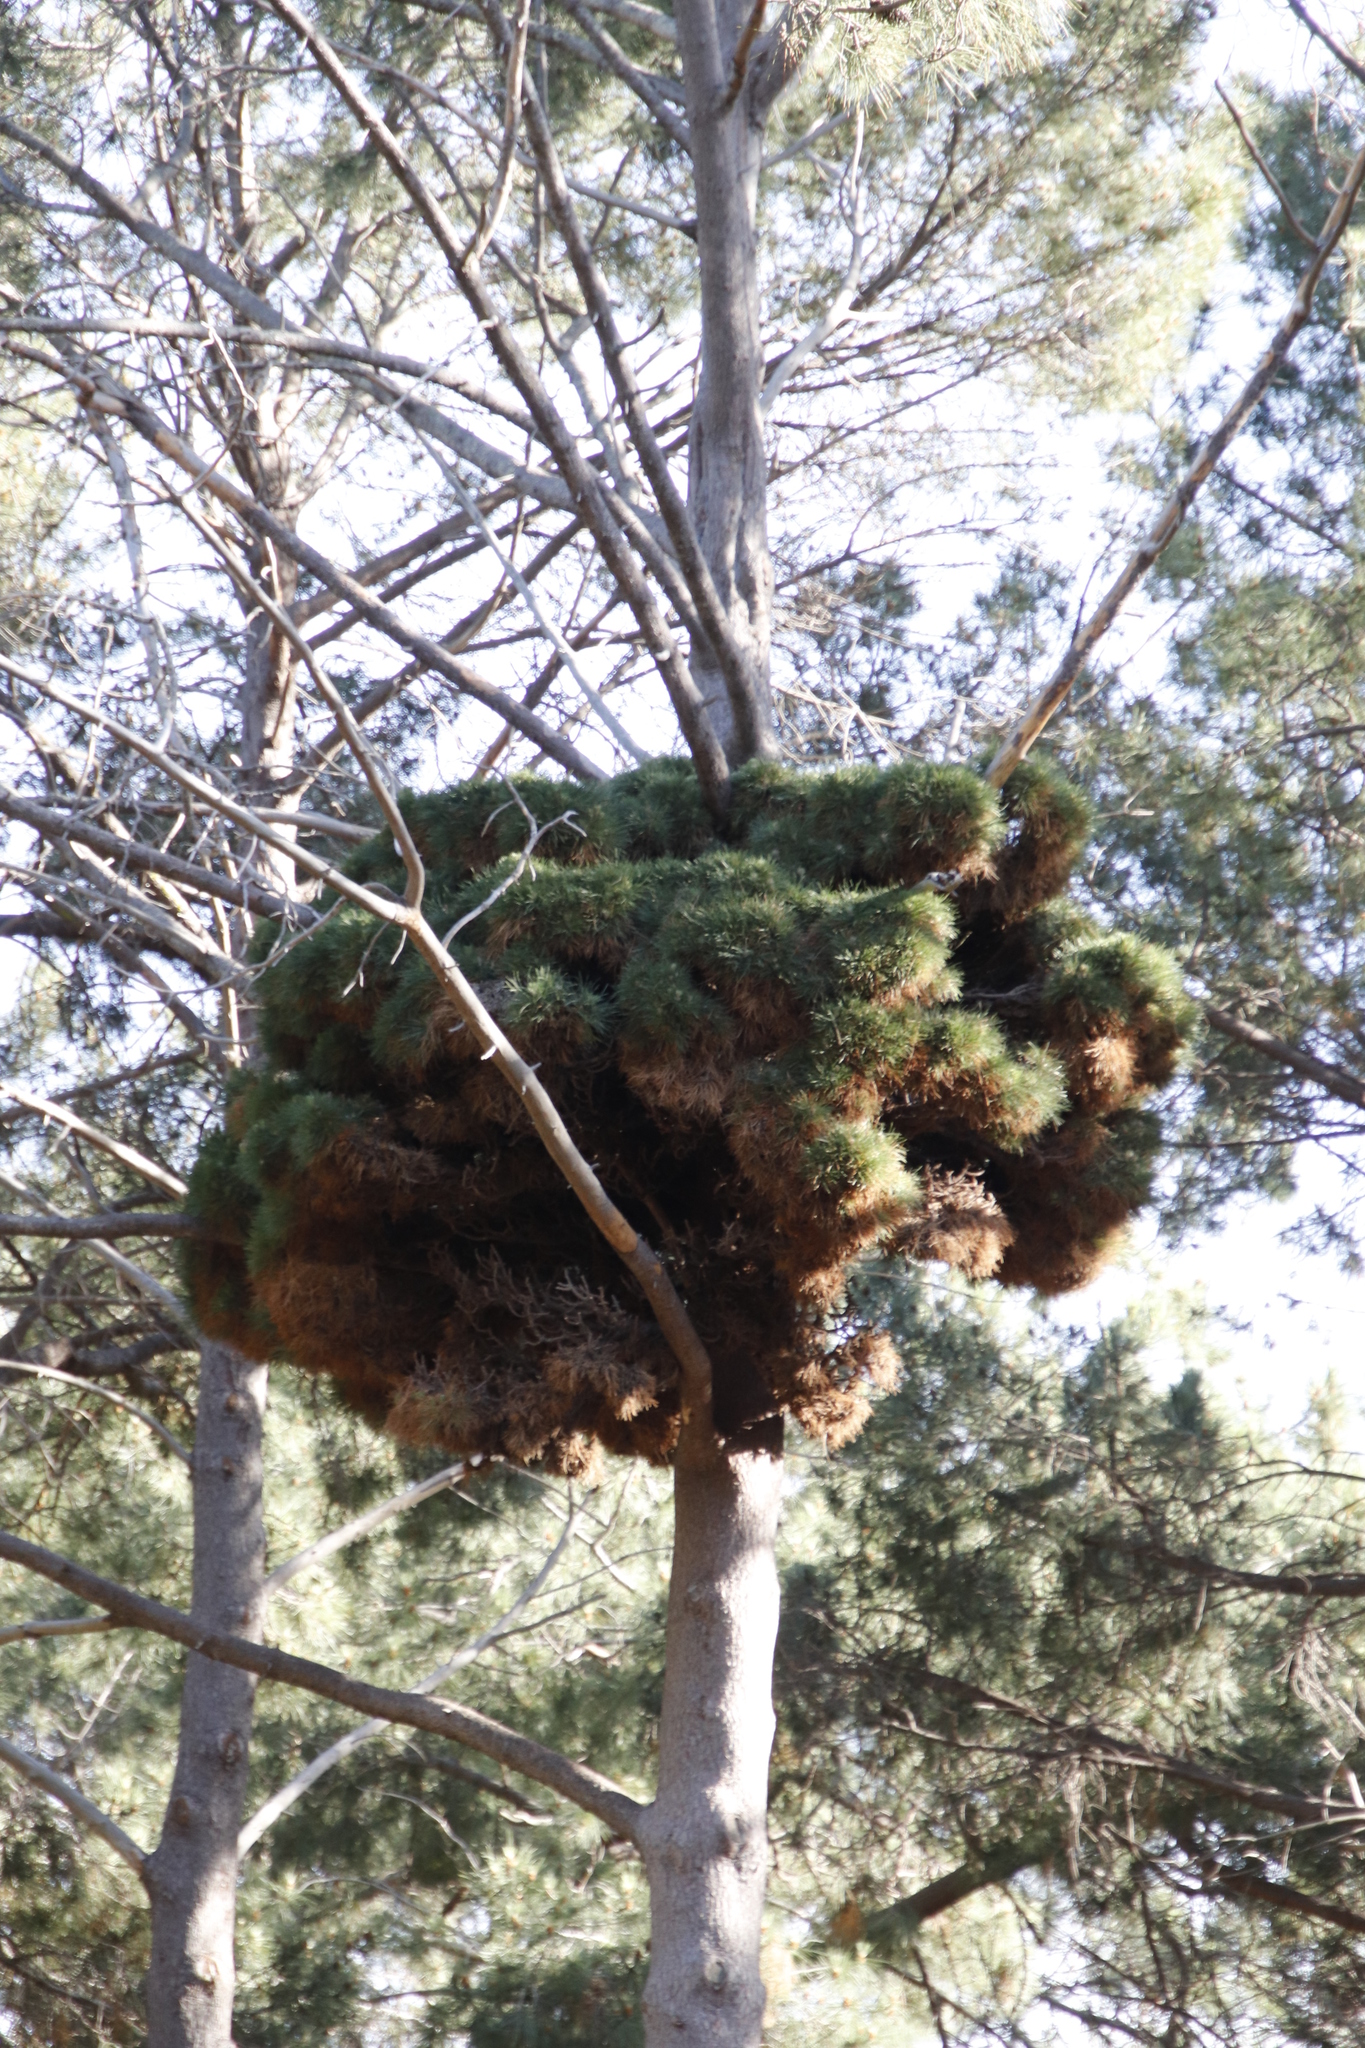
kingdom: Bacteria
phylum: Firmicutes
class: Bacilli
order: Acholeplasmatales
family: Acholeplasmataceae
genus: Phytoplasma
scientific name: Phytoplasma pini
